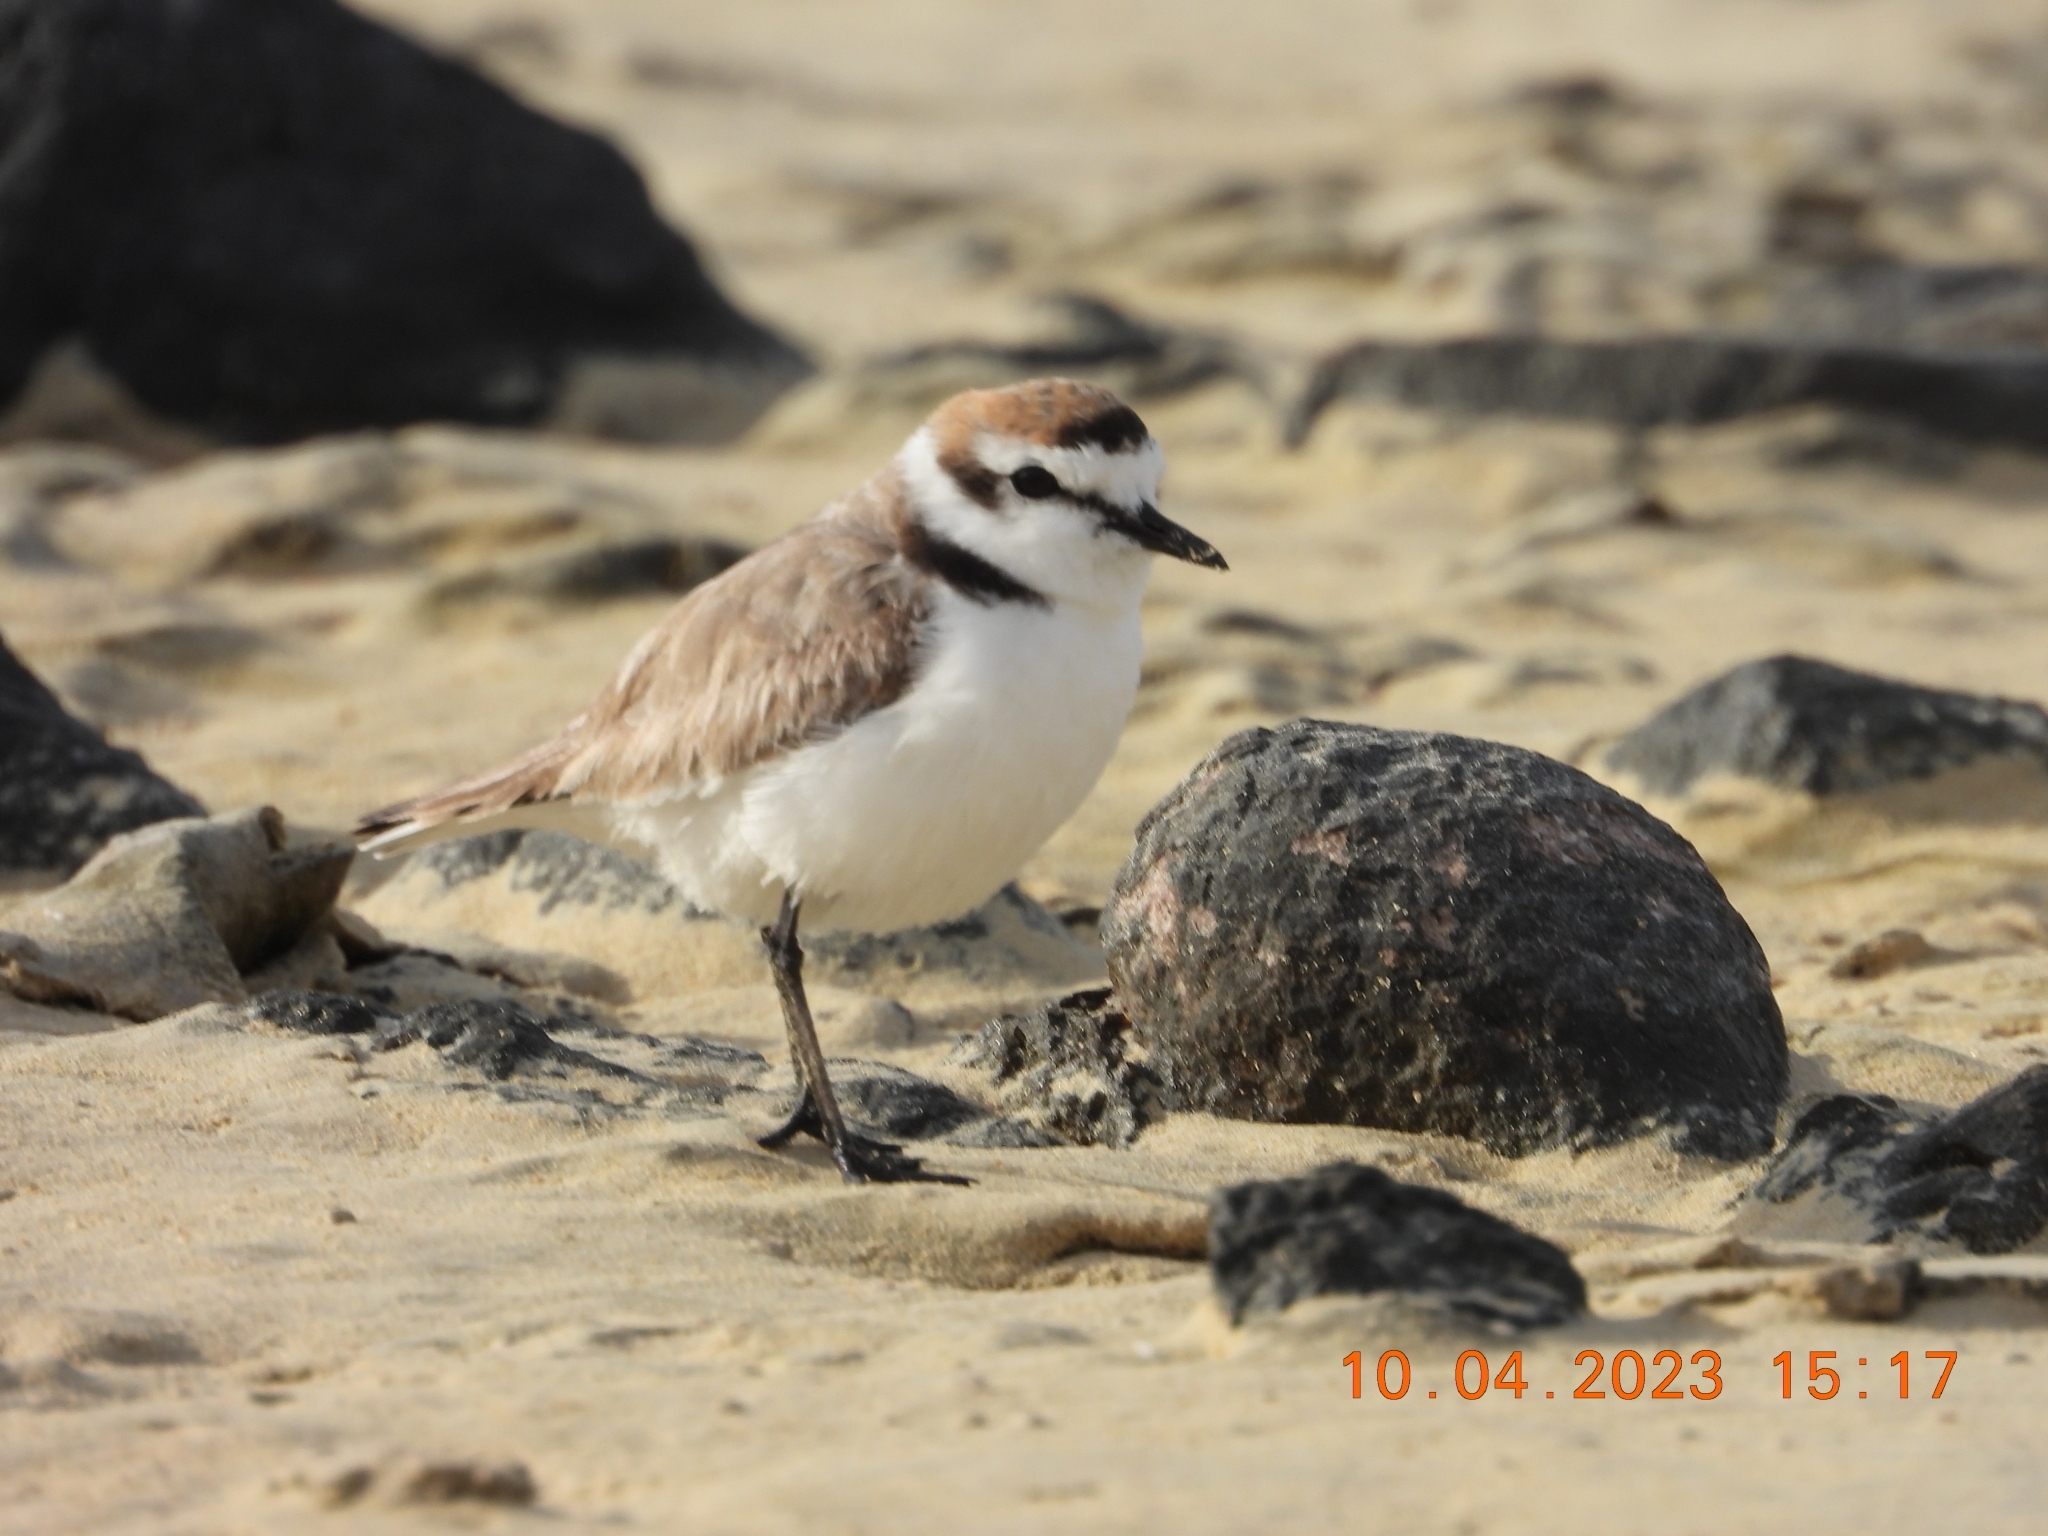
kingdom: Animalia
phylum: Chordata
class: Aves
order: Charadriiformes
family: Charadriidae
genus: Charadrius
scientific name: Charadrius alexandrinus
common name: Kentish plover
